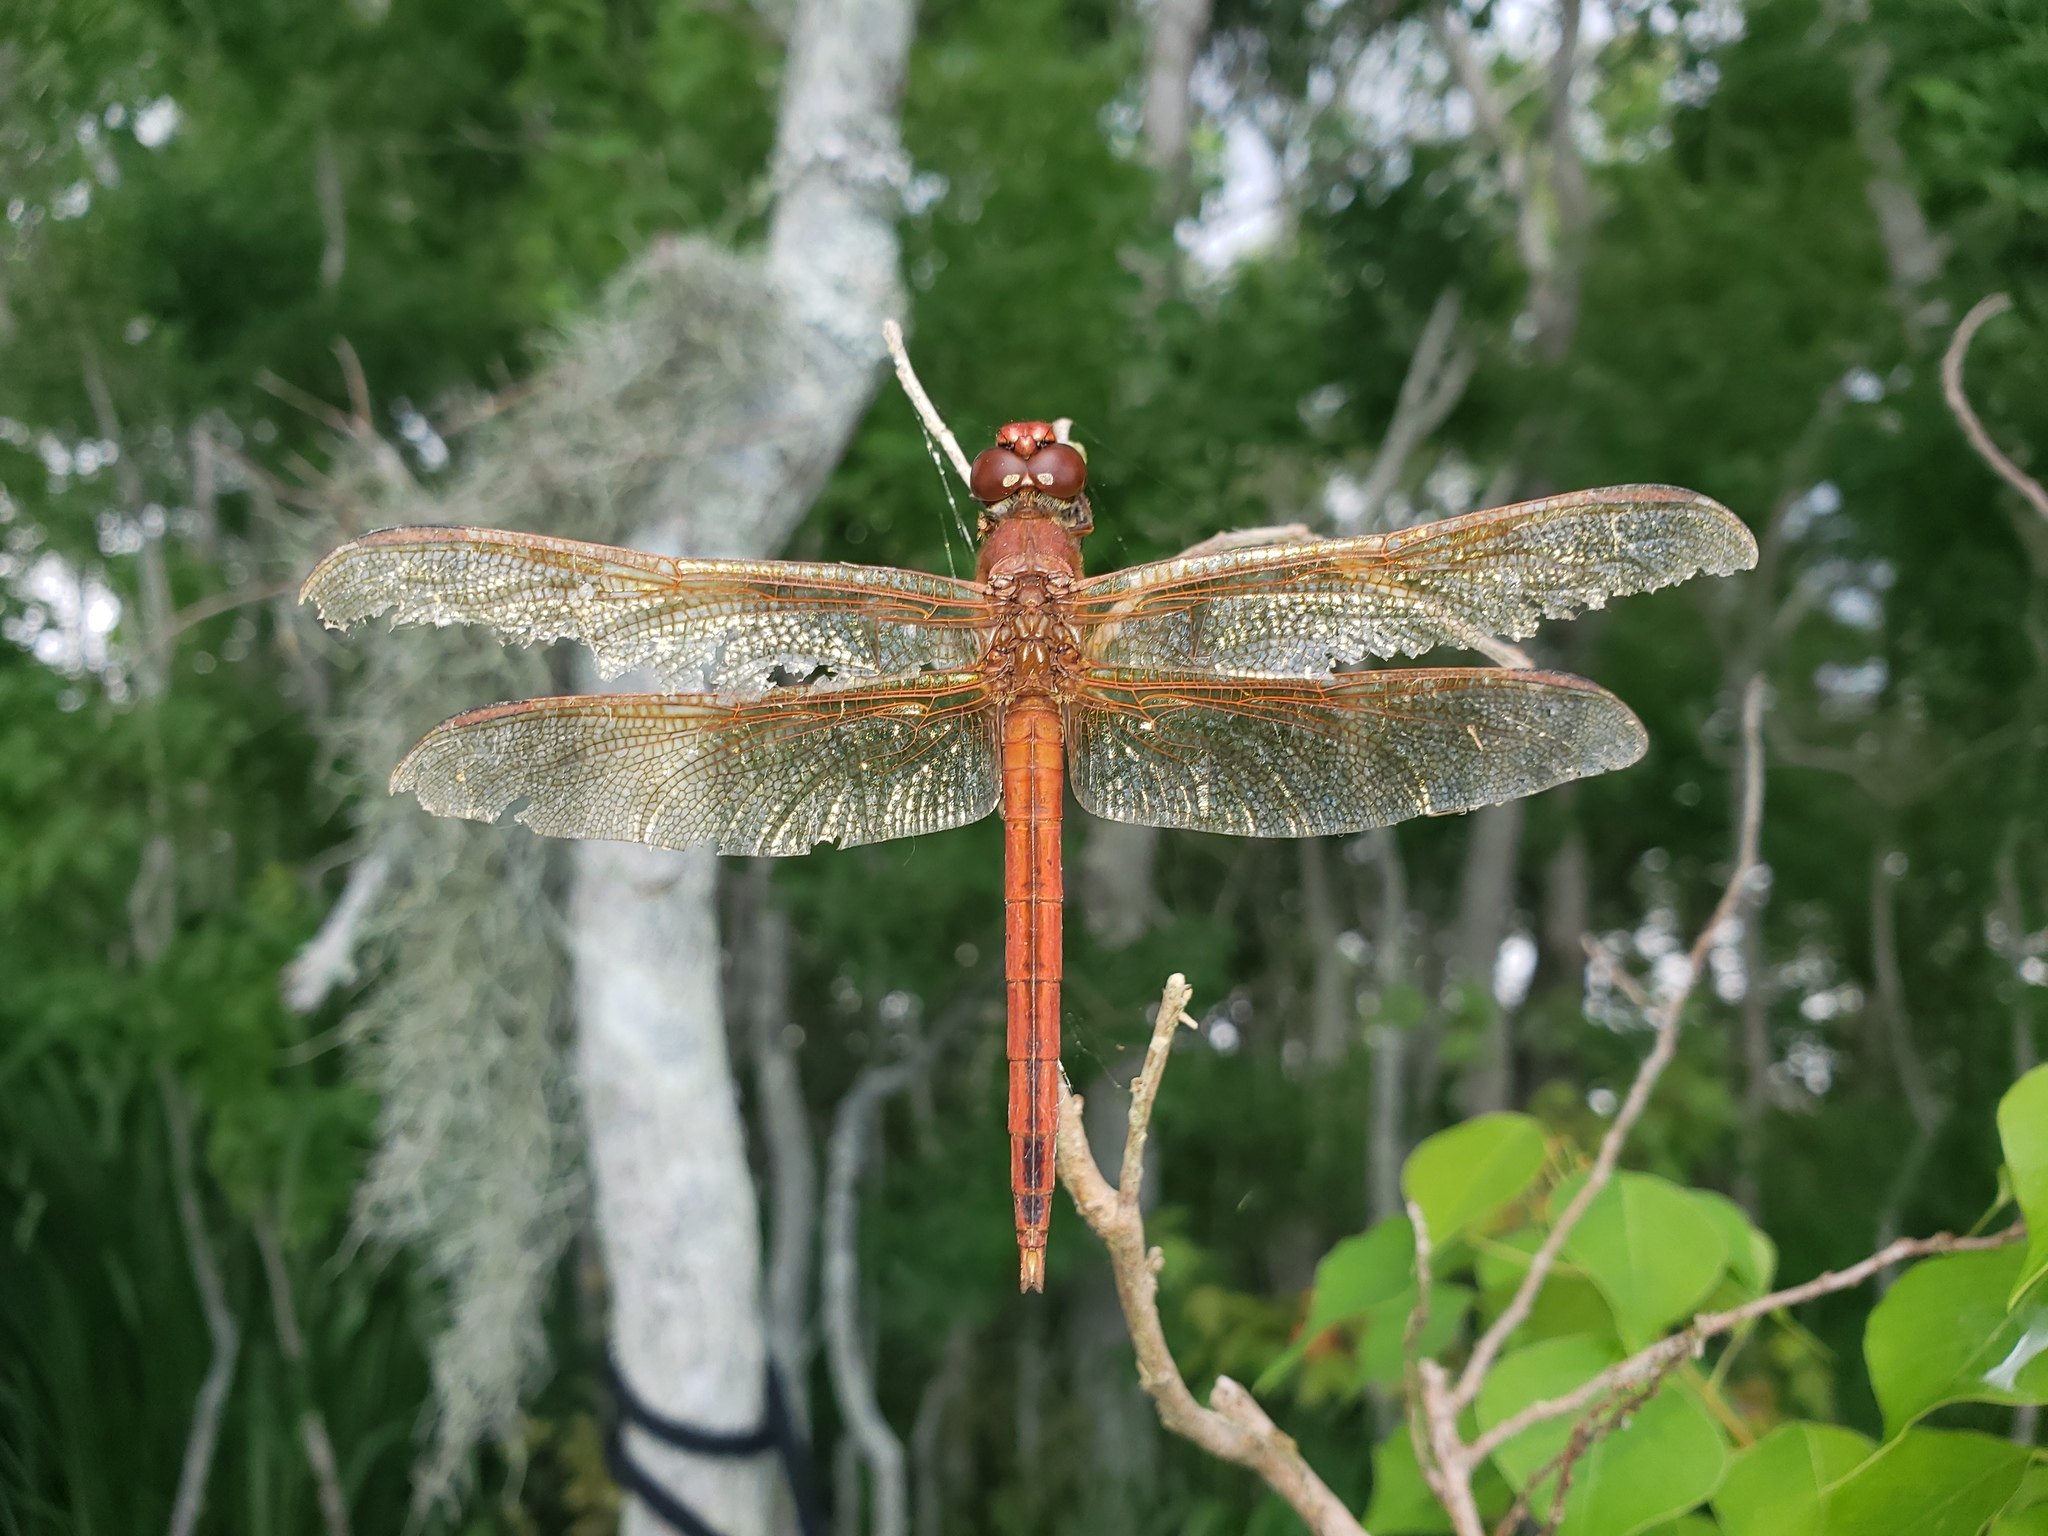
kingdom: Animalia
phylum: Arthropoda
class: Insecta
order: Odonata
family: Libellulidae
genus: Libellula
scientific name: Libellula needhami
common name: Needham's skimmer
